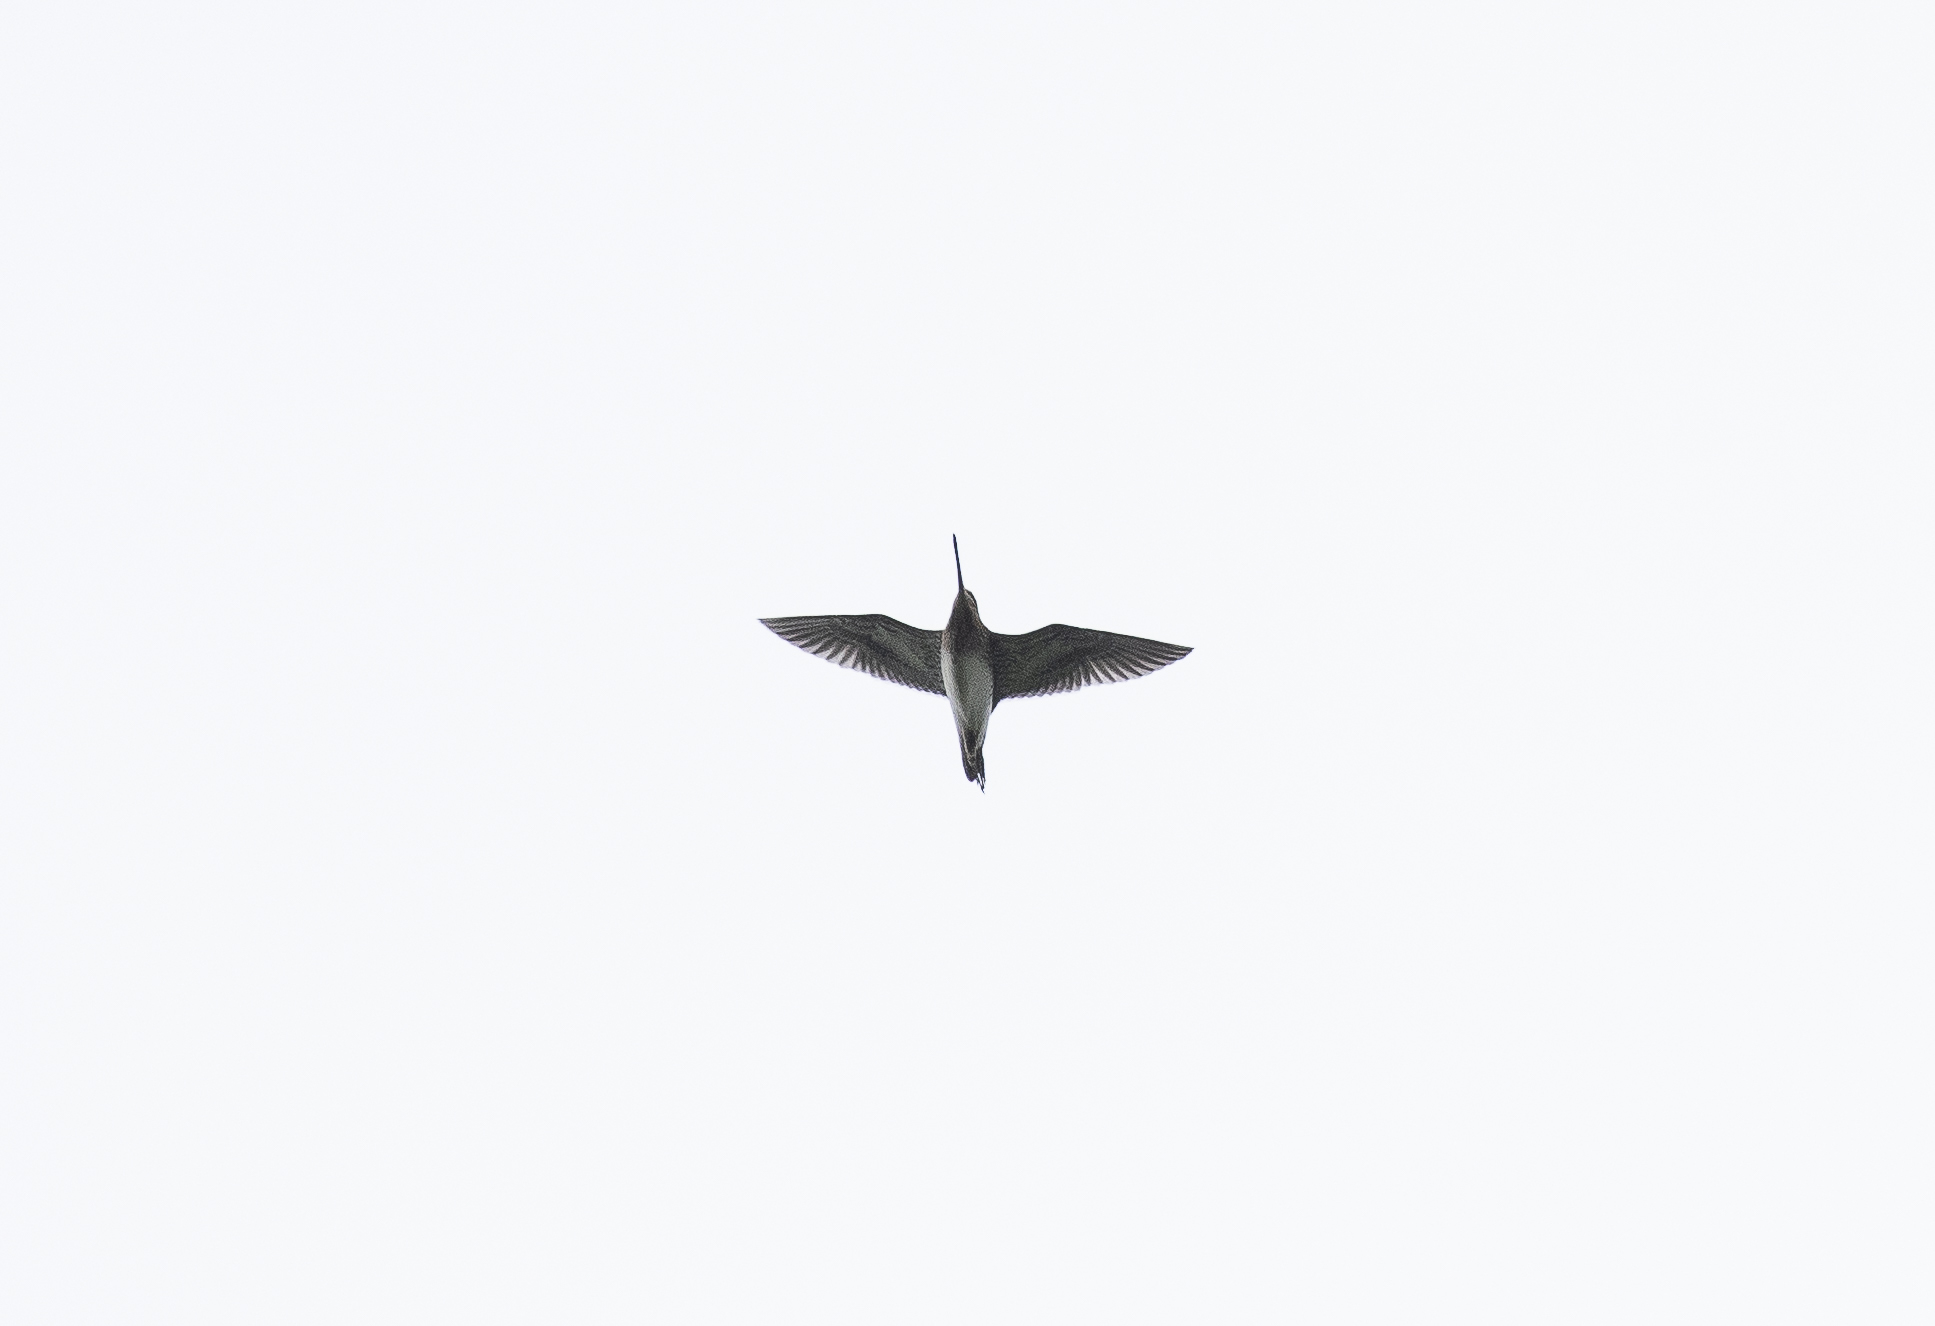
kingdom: Animalia
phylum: Chordata
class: Aves
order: Charadriiformes
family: Scolopacidae
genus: Gallinago
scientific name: Gallinago gallinago
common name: Common snipe
